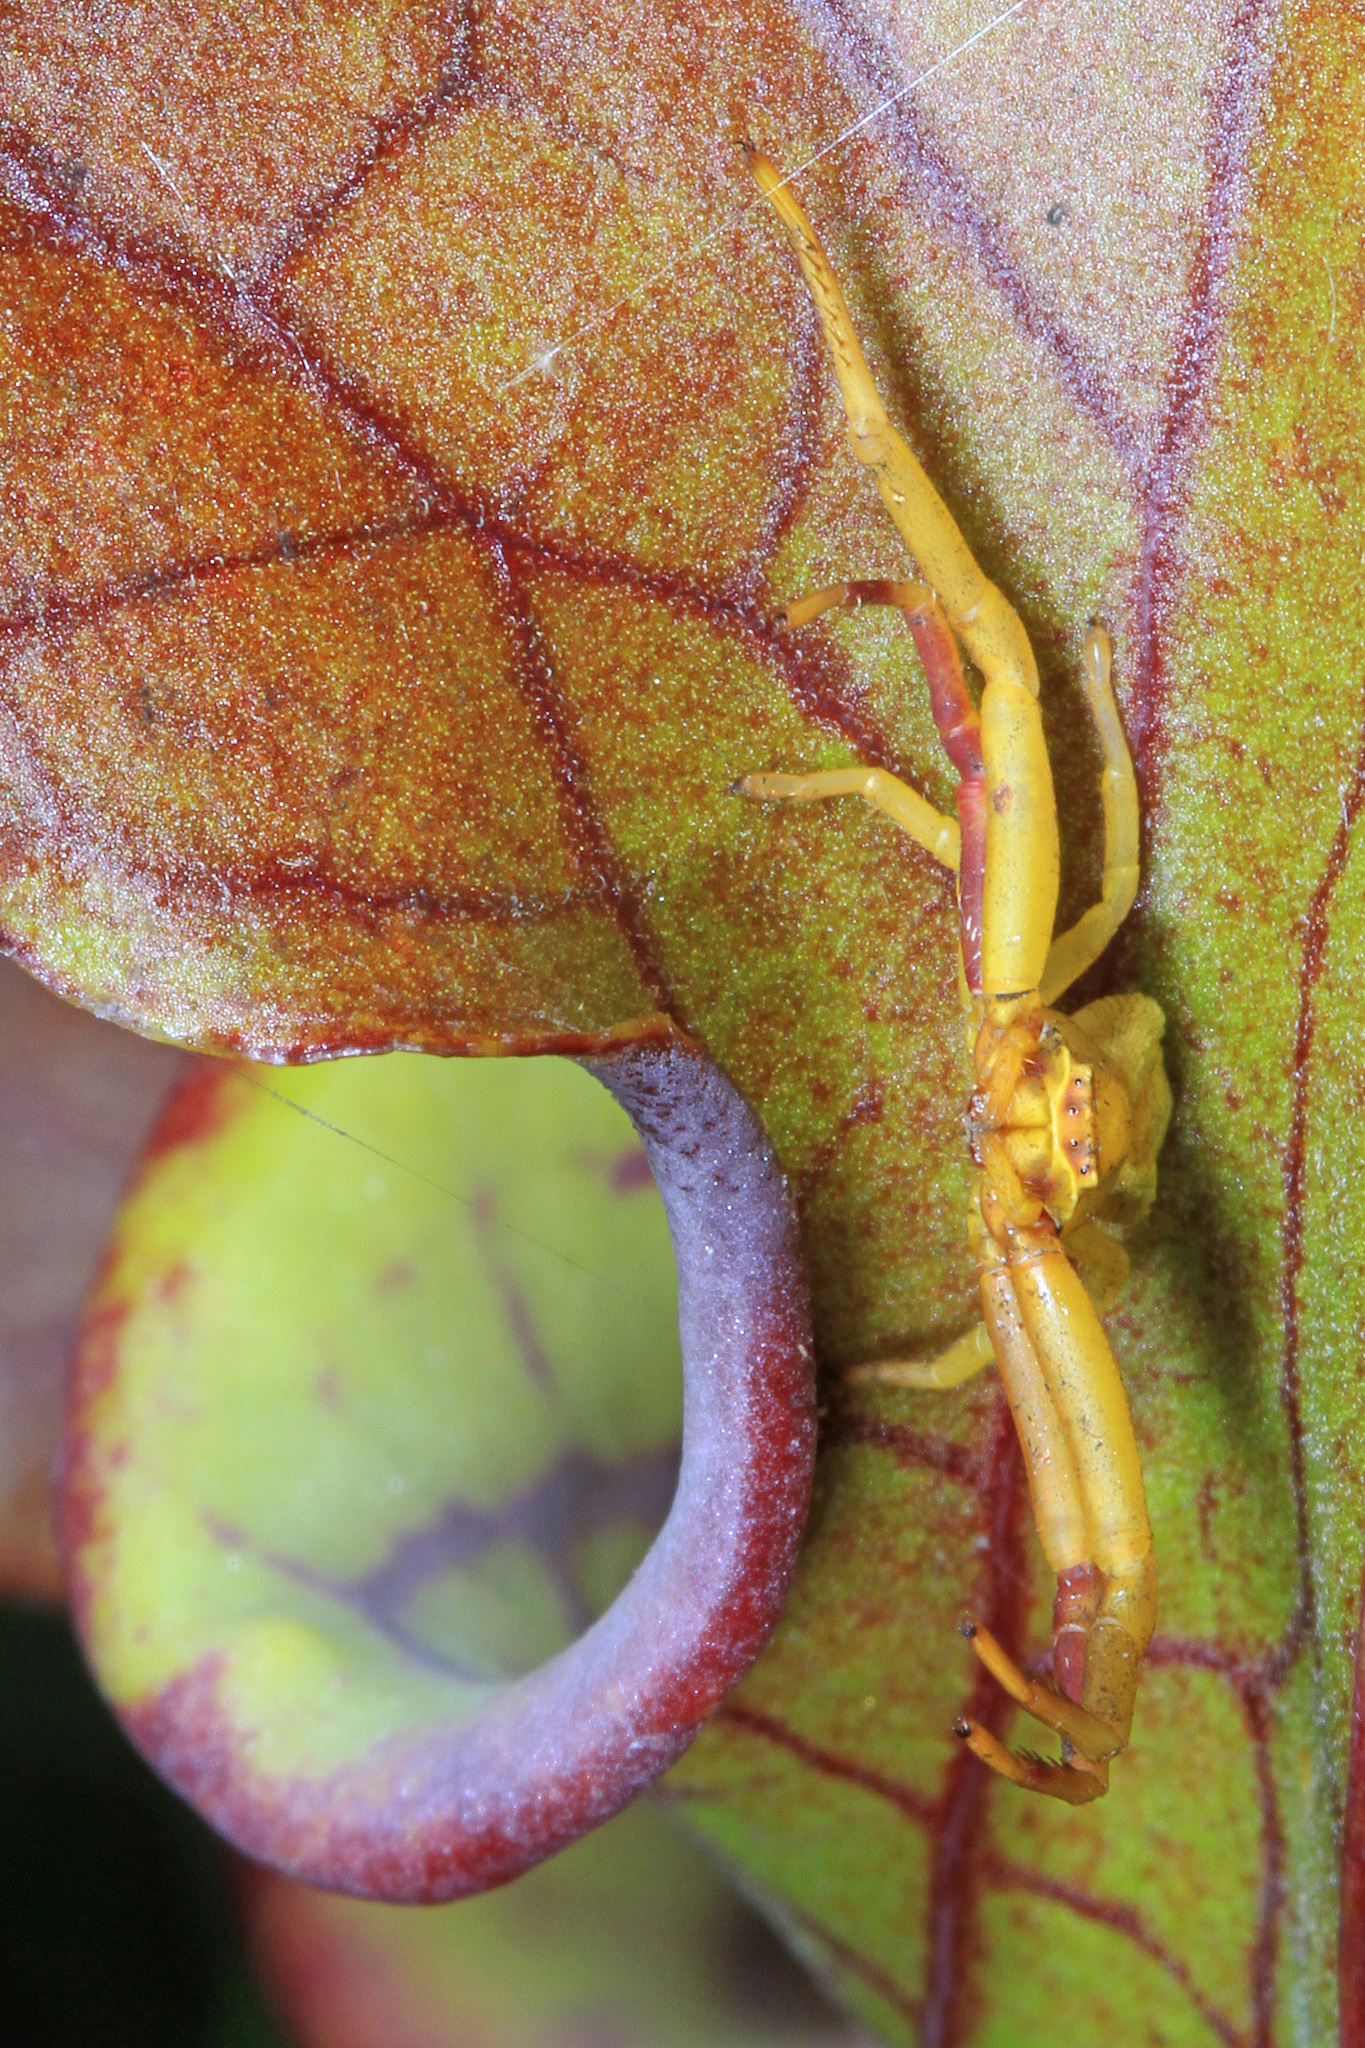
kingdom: Animalia
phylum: Arthropoda
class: Arachnida
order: Araneae
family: Thomisidae
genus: Misumenoides
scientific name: Misumenoides formosipes
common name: White-banded crab spider
